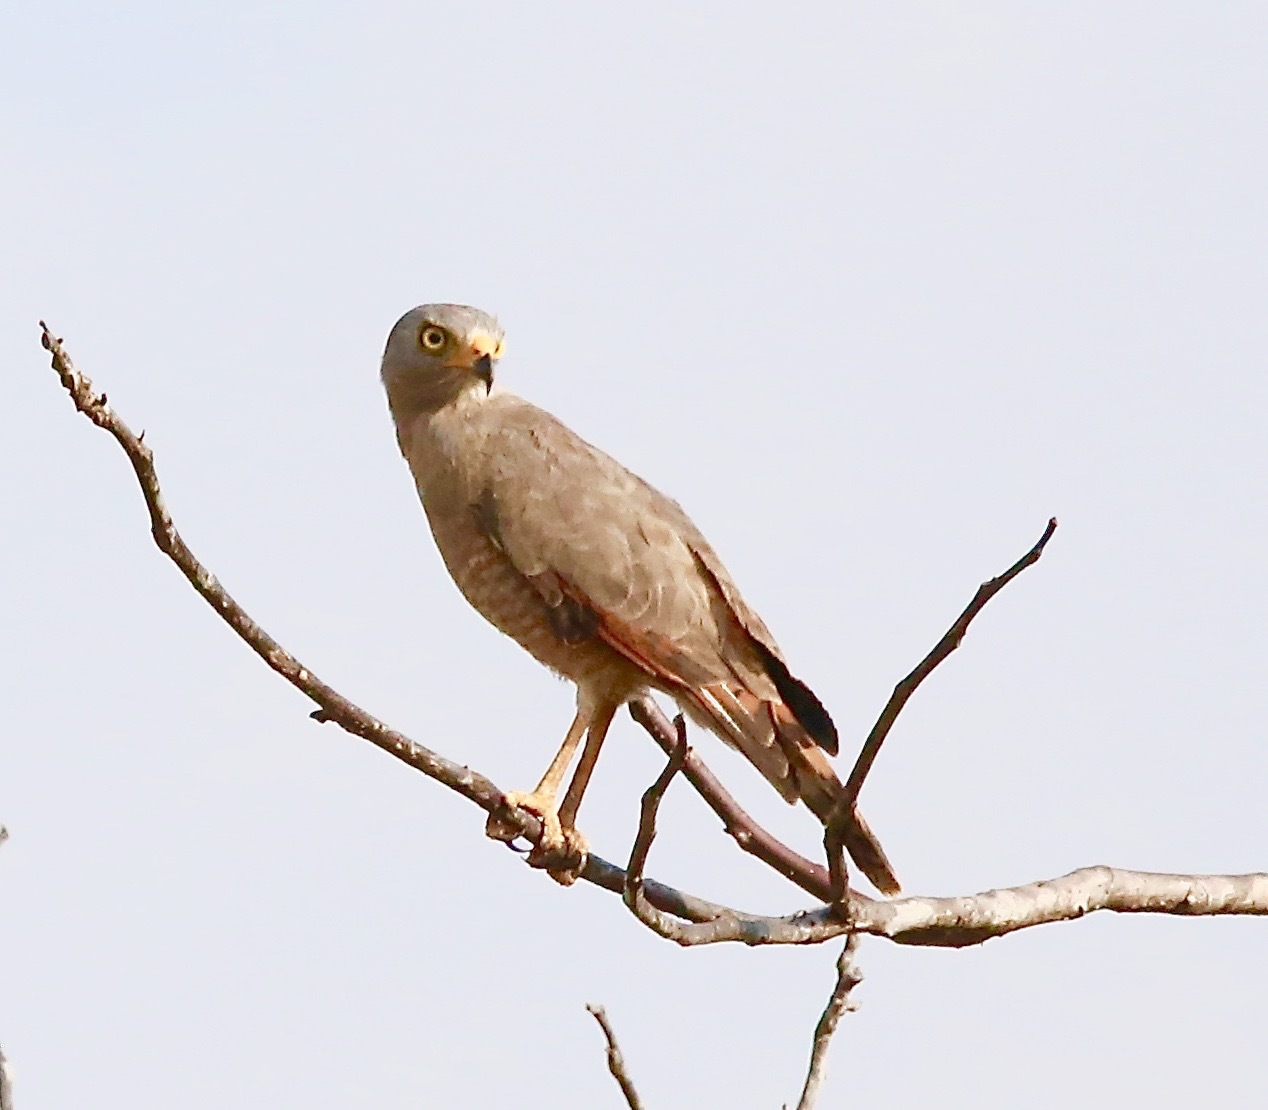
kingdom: Animalia
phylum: Chordata
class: Aves
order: Accipitriformes
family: Accipitridae
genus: Rupornis
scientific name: Rupornis magnirostris
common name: Roadside hawk
